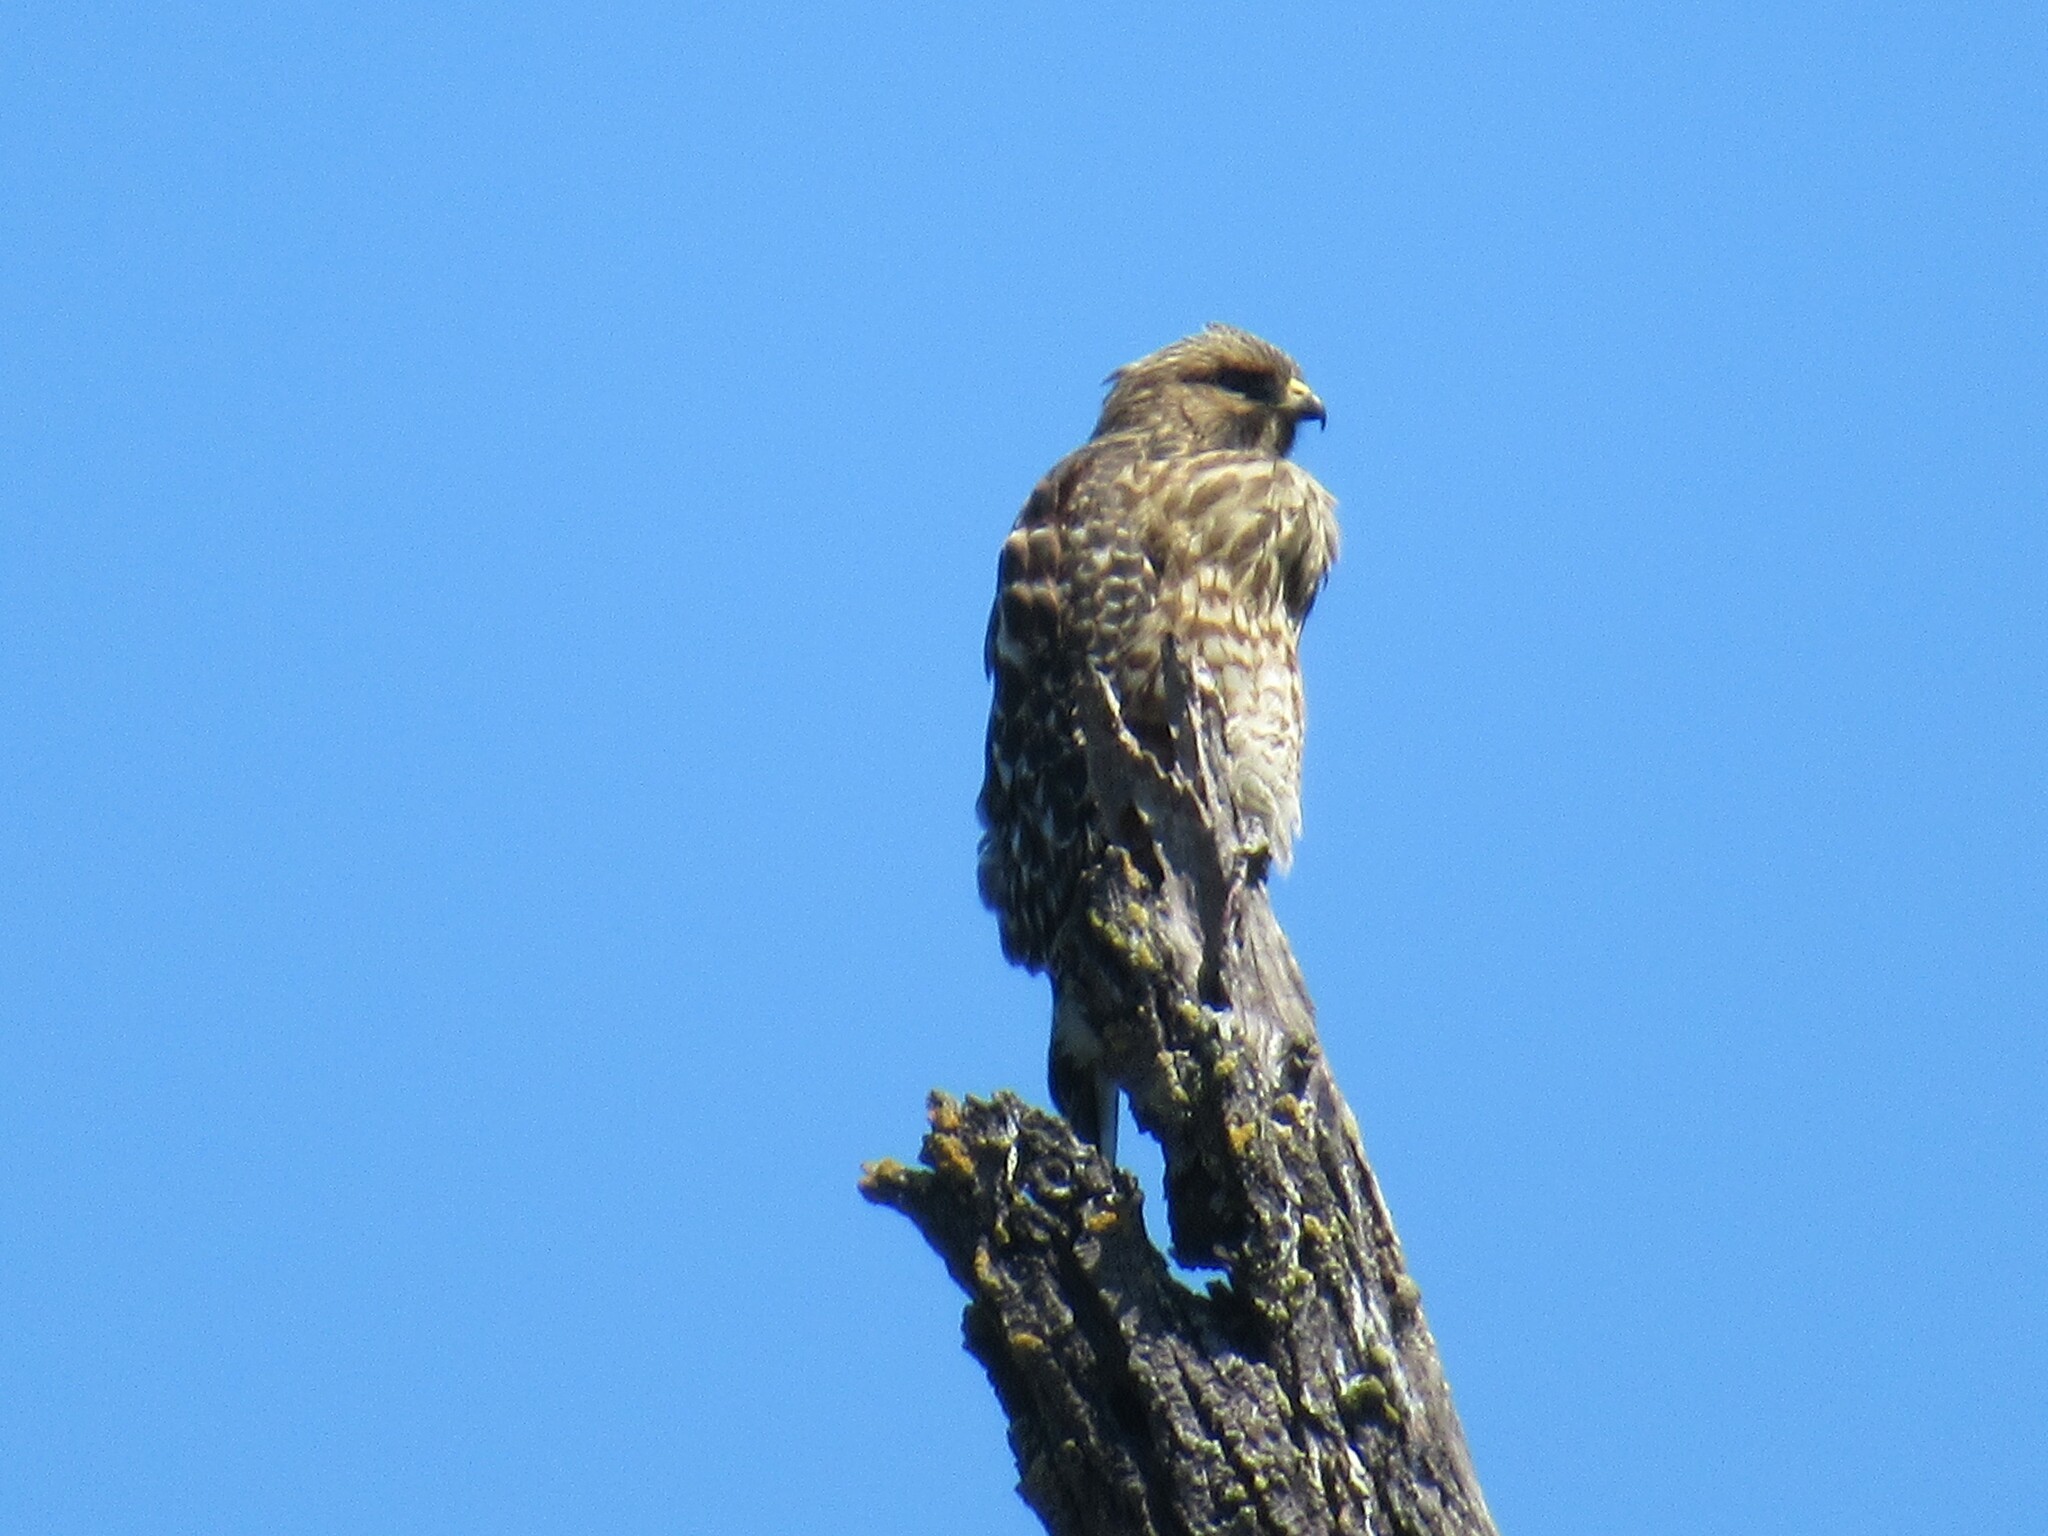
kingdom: Animalia
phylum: Chordata
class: Aves
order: Accipitriformes
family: Accipitridae
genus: Buteo
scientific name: Buteo lineatus
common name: Red-shouldered hawk
